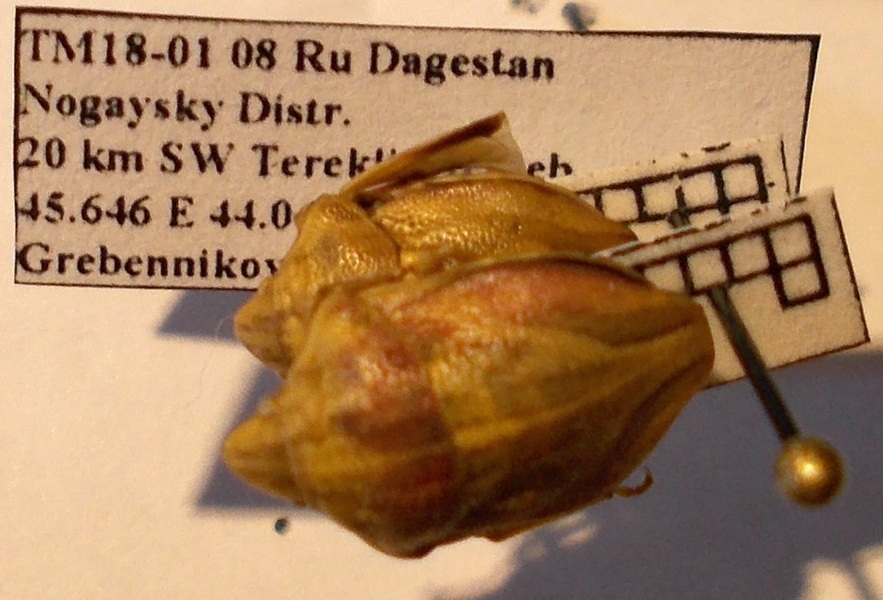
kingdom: Animalia
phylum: Arthropoda
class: Insecta
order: Hemiptera
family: Scutelleridae
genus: Odontotarsus
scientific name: Odontotarsus purpureolineatus
